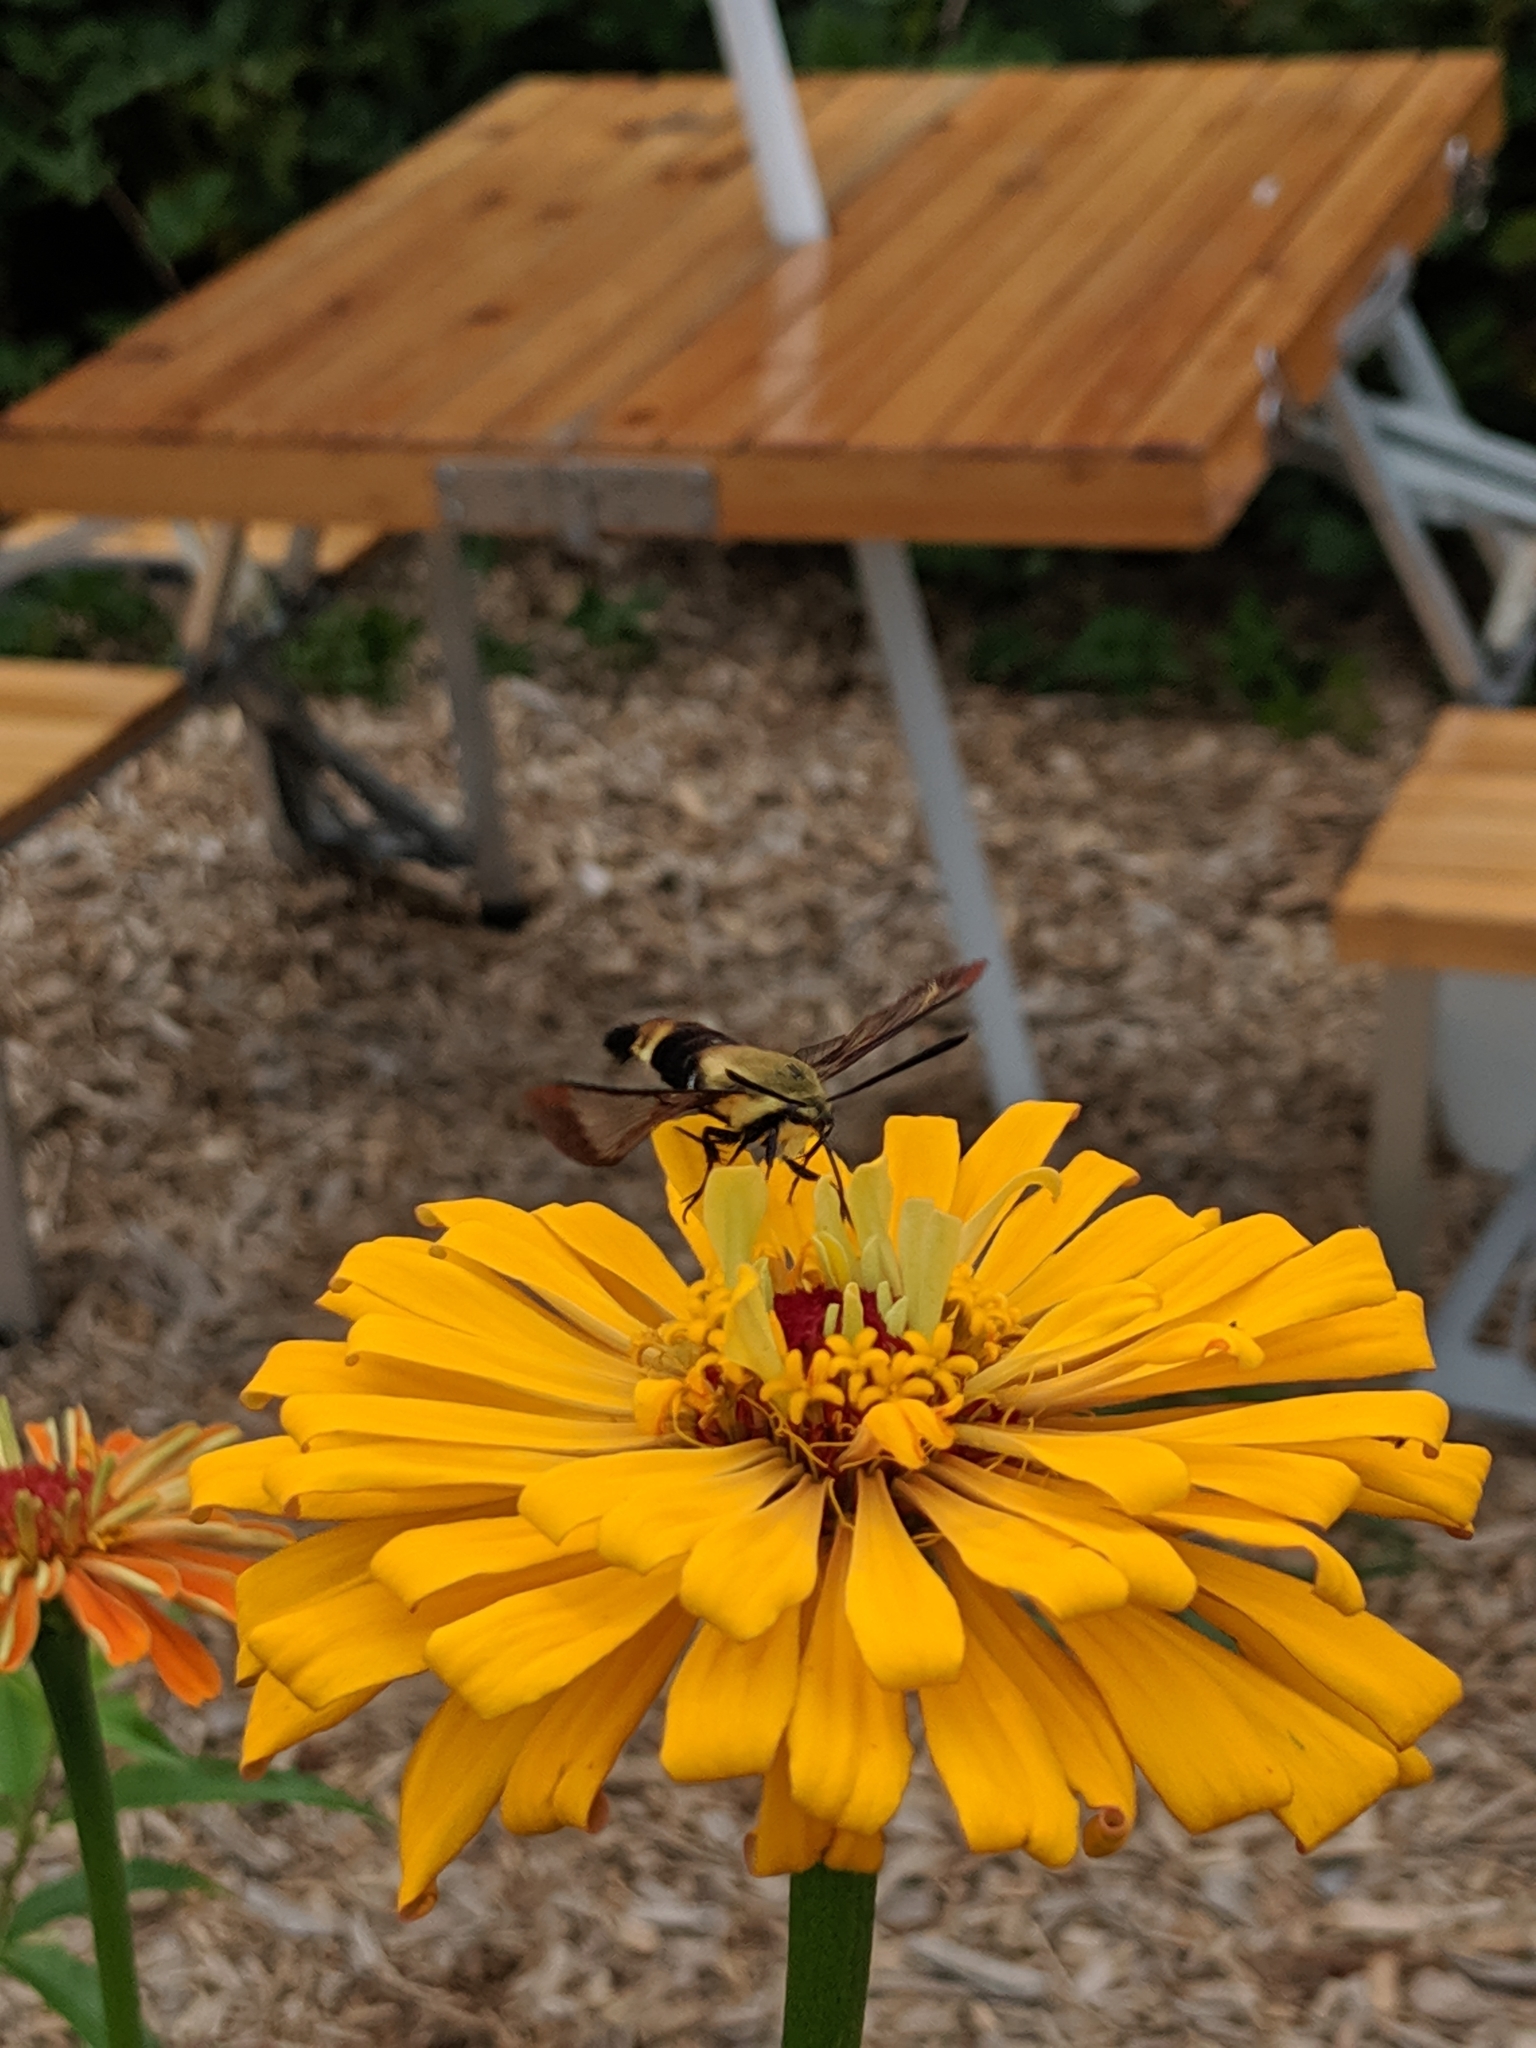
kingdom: Animalia
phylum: Arthropoda
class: Insecta
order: Lepidoptera
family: Sphingidae
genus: Hemaris
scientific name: Hemaris diffinis
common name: Bumblebee moth
